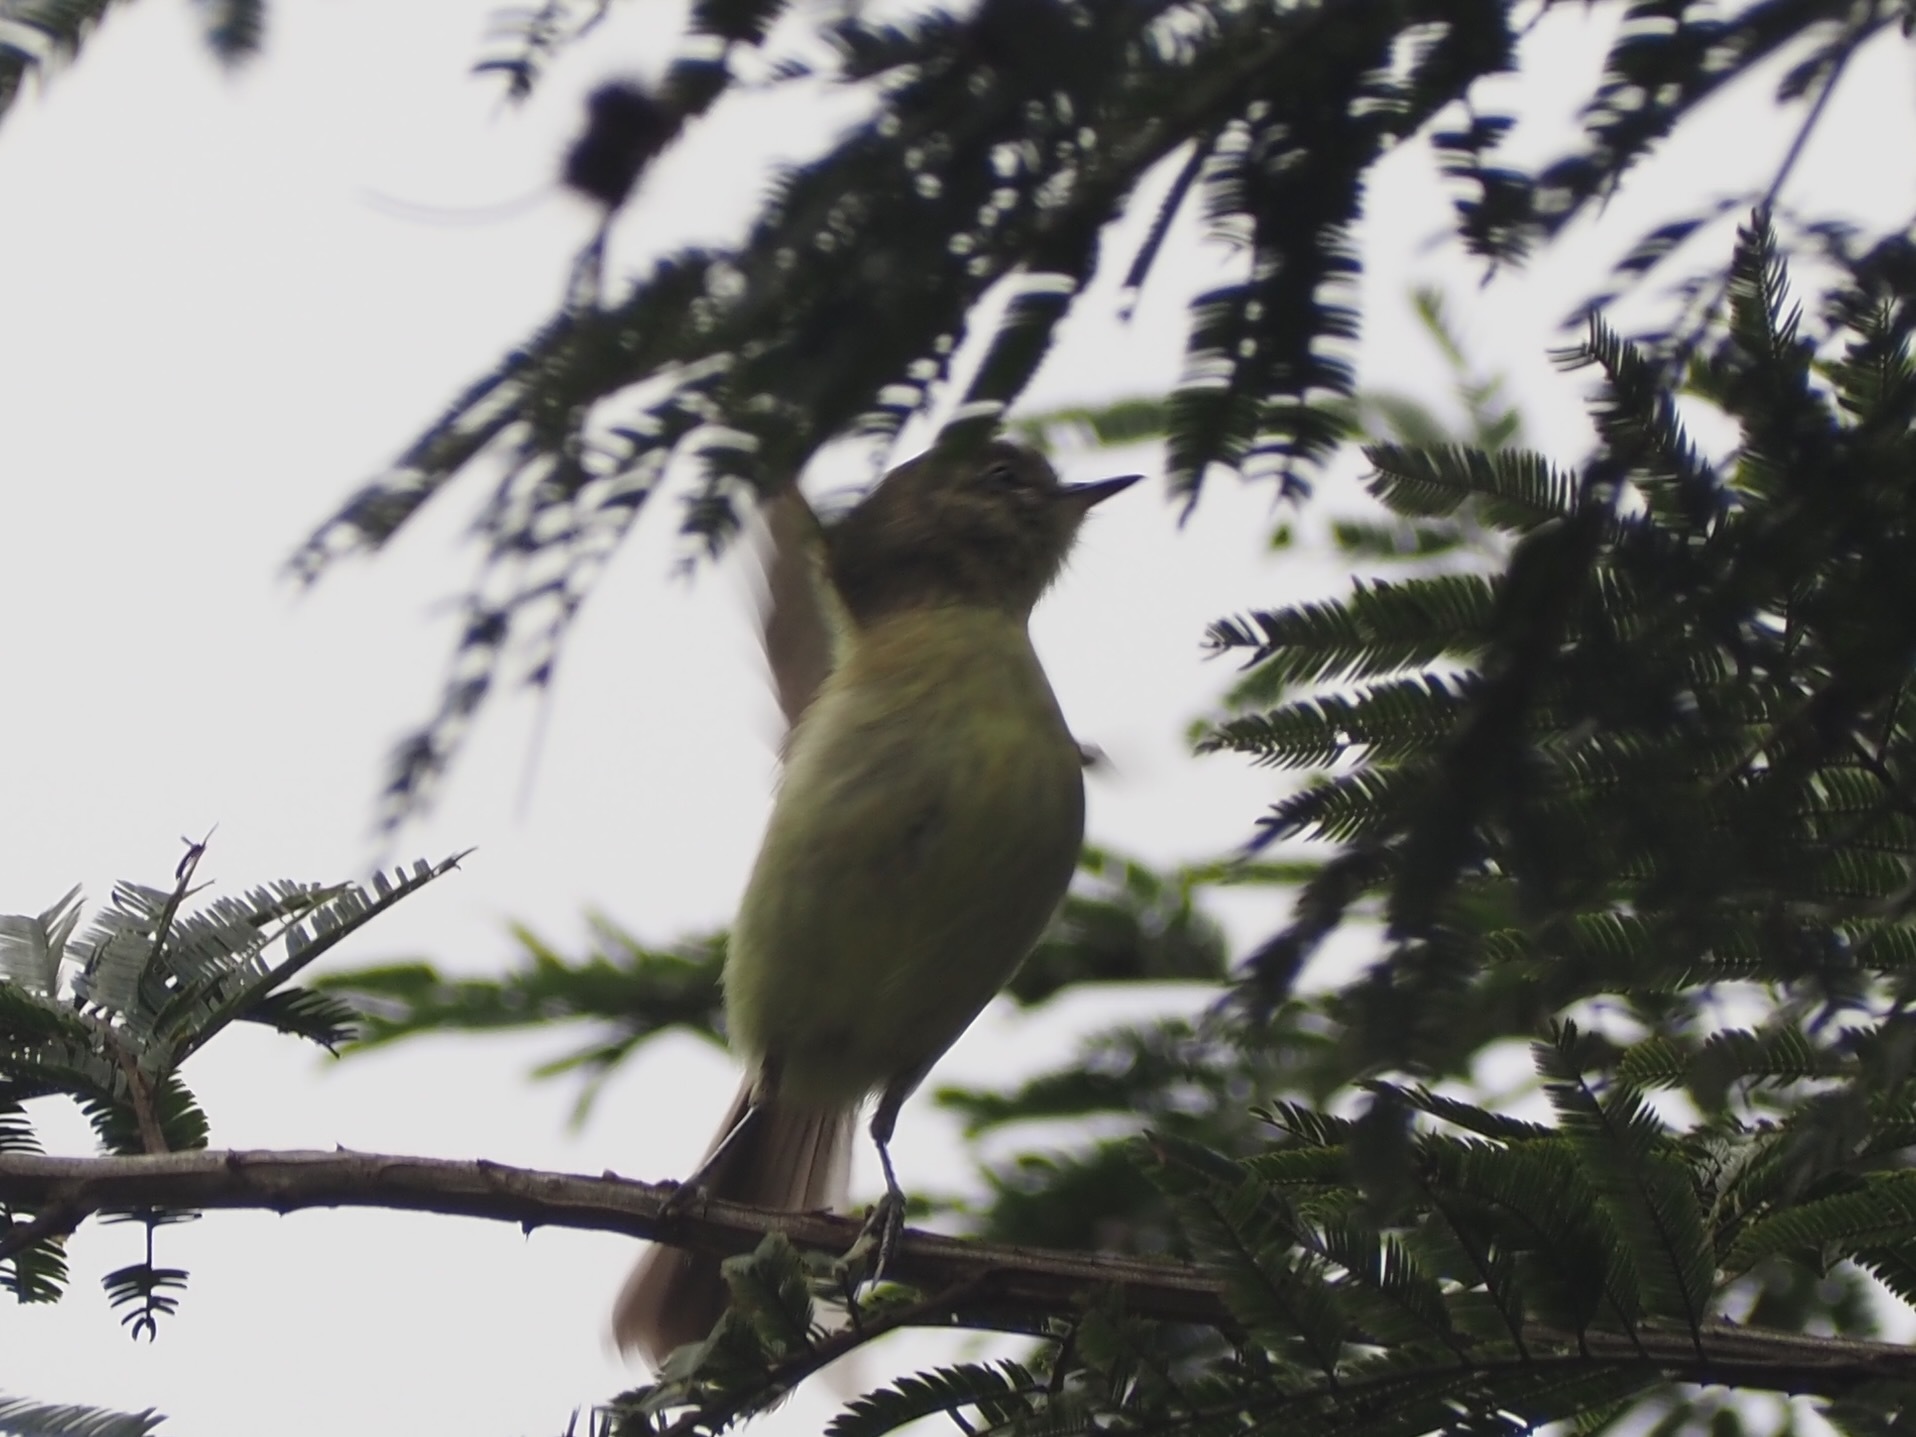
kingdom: Animalia
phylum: Chordata
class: Aves
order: Passeriformes
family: Tyrannidae
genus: Tolmomyias
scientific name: Tolmomyias sulphurescens
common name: Yellow-olive flycatcher
